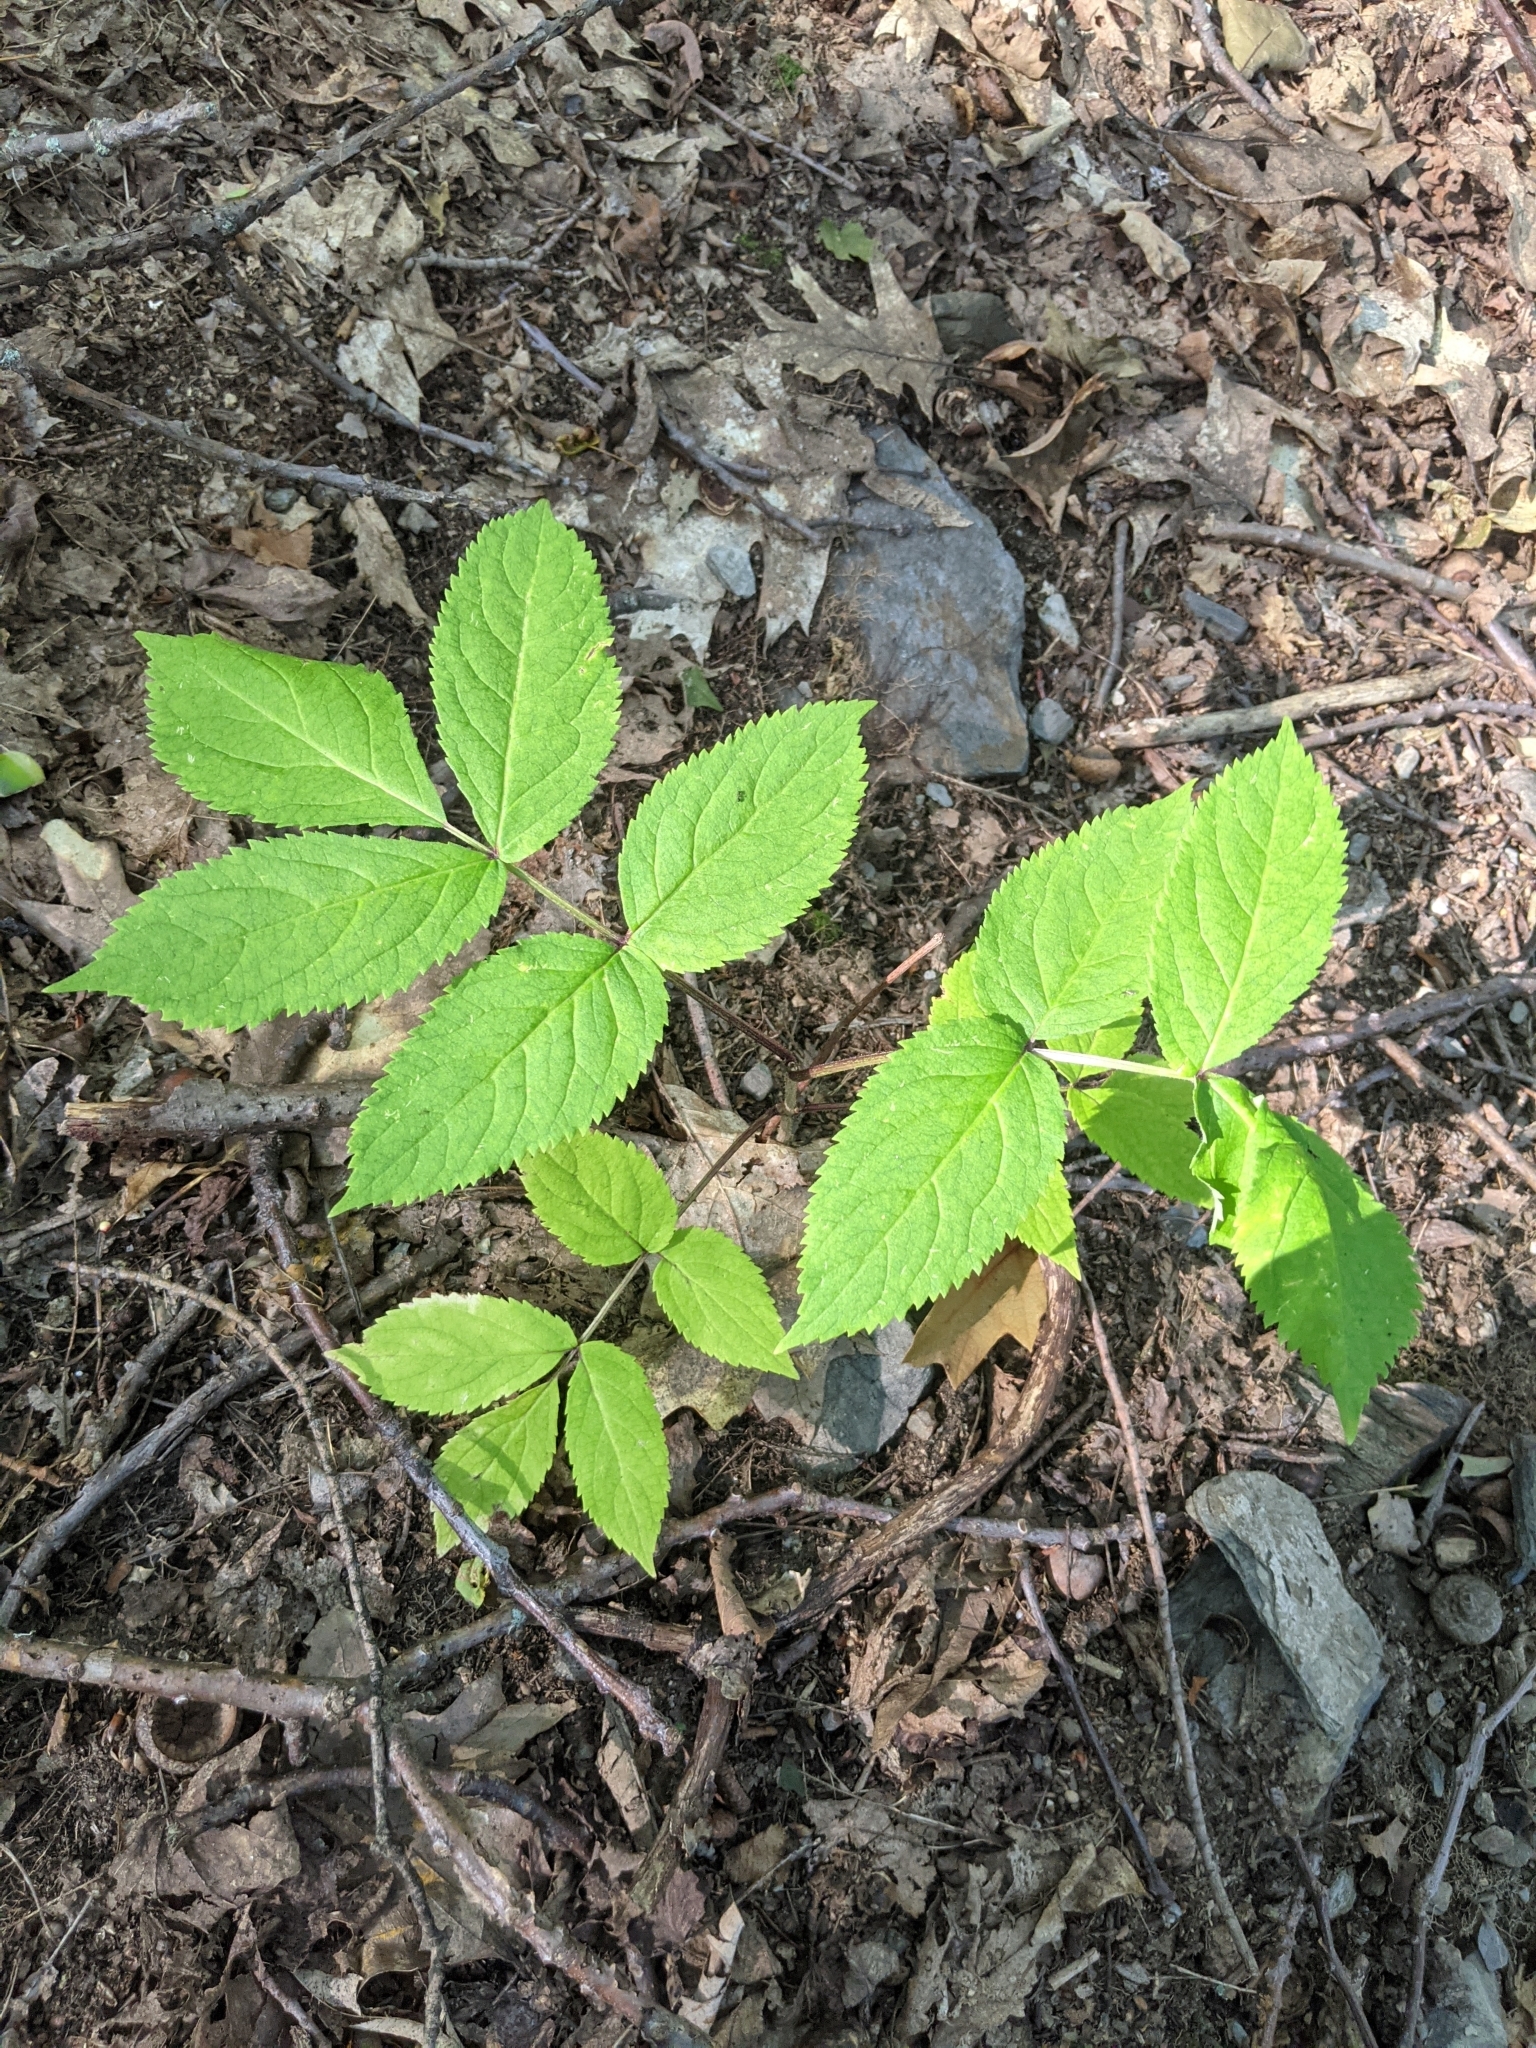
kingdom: Plantae
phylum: Tracheophyta
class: Magnoliopsida
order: Apiales
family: Araliaceae
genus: Aralia
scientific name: Aralia nudicaulis
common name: Wild sarsaparilla
